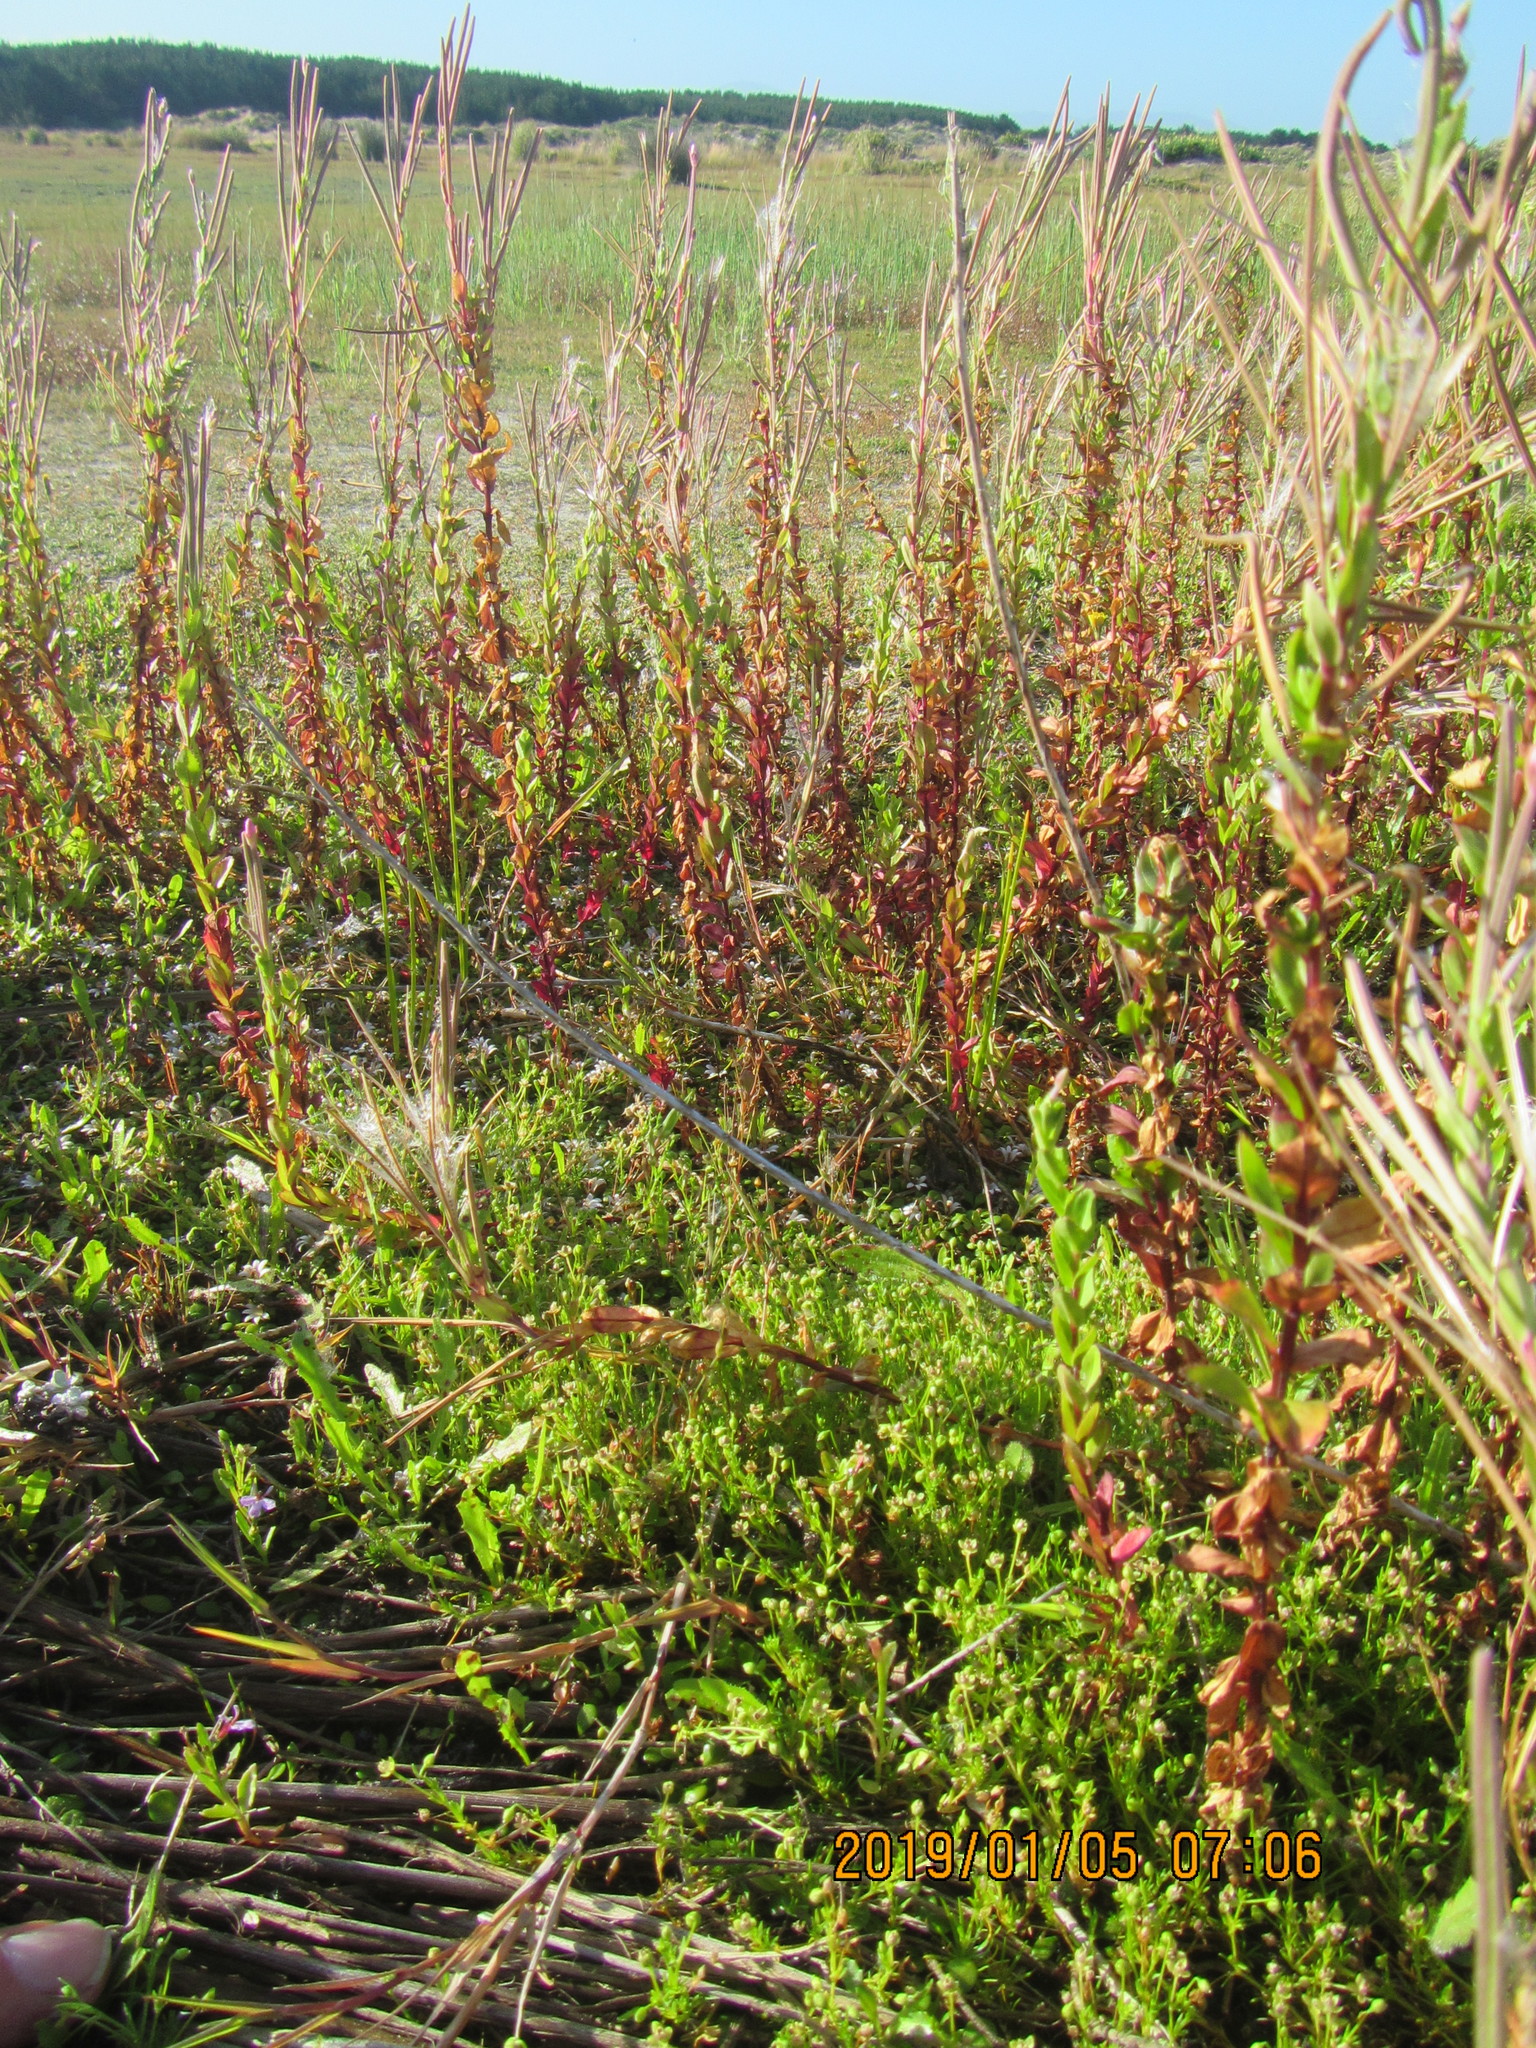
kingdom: Plantae
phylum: Tracheophyta
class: Magnoliopsida
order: Caryophyllales
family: Caryophyllaceae
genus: Sagina
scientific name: Sagina procumbens
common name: Procumbent pearlwort
